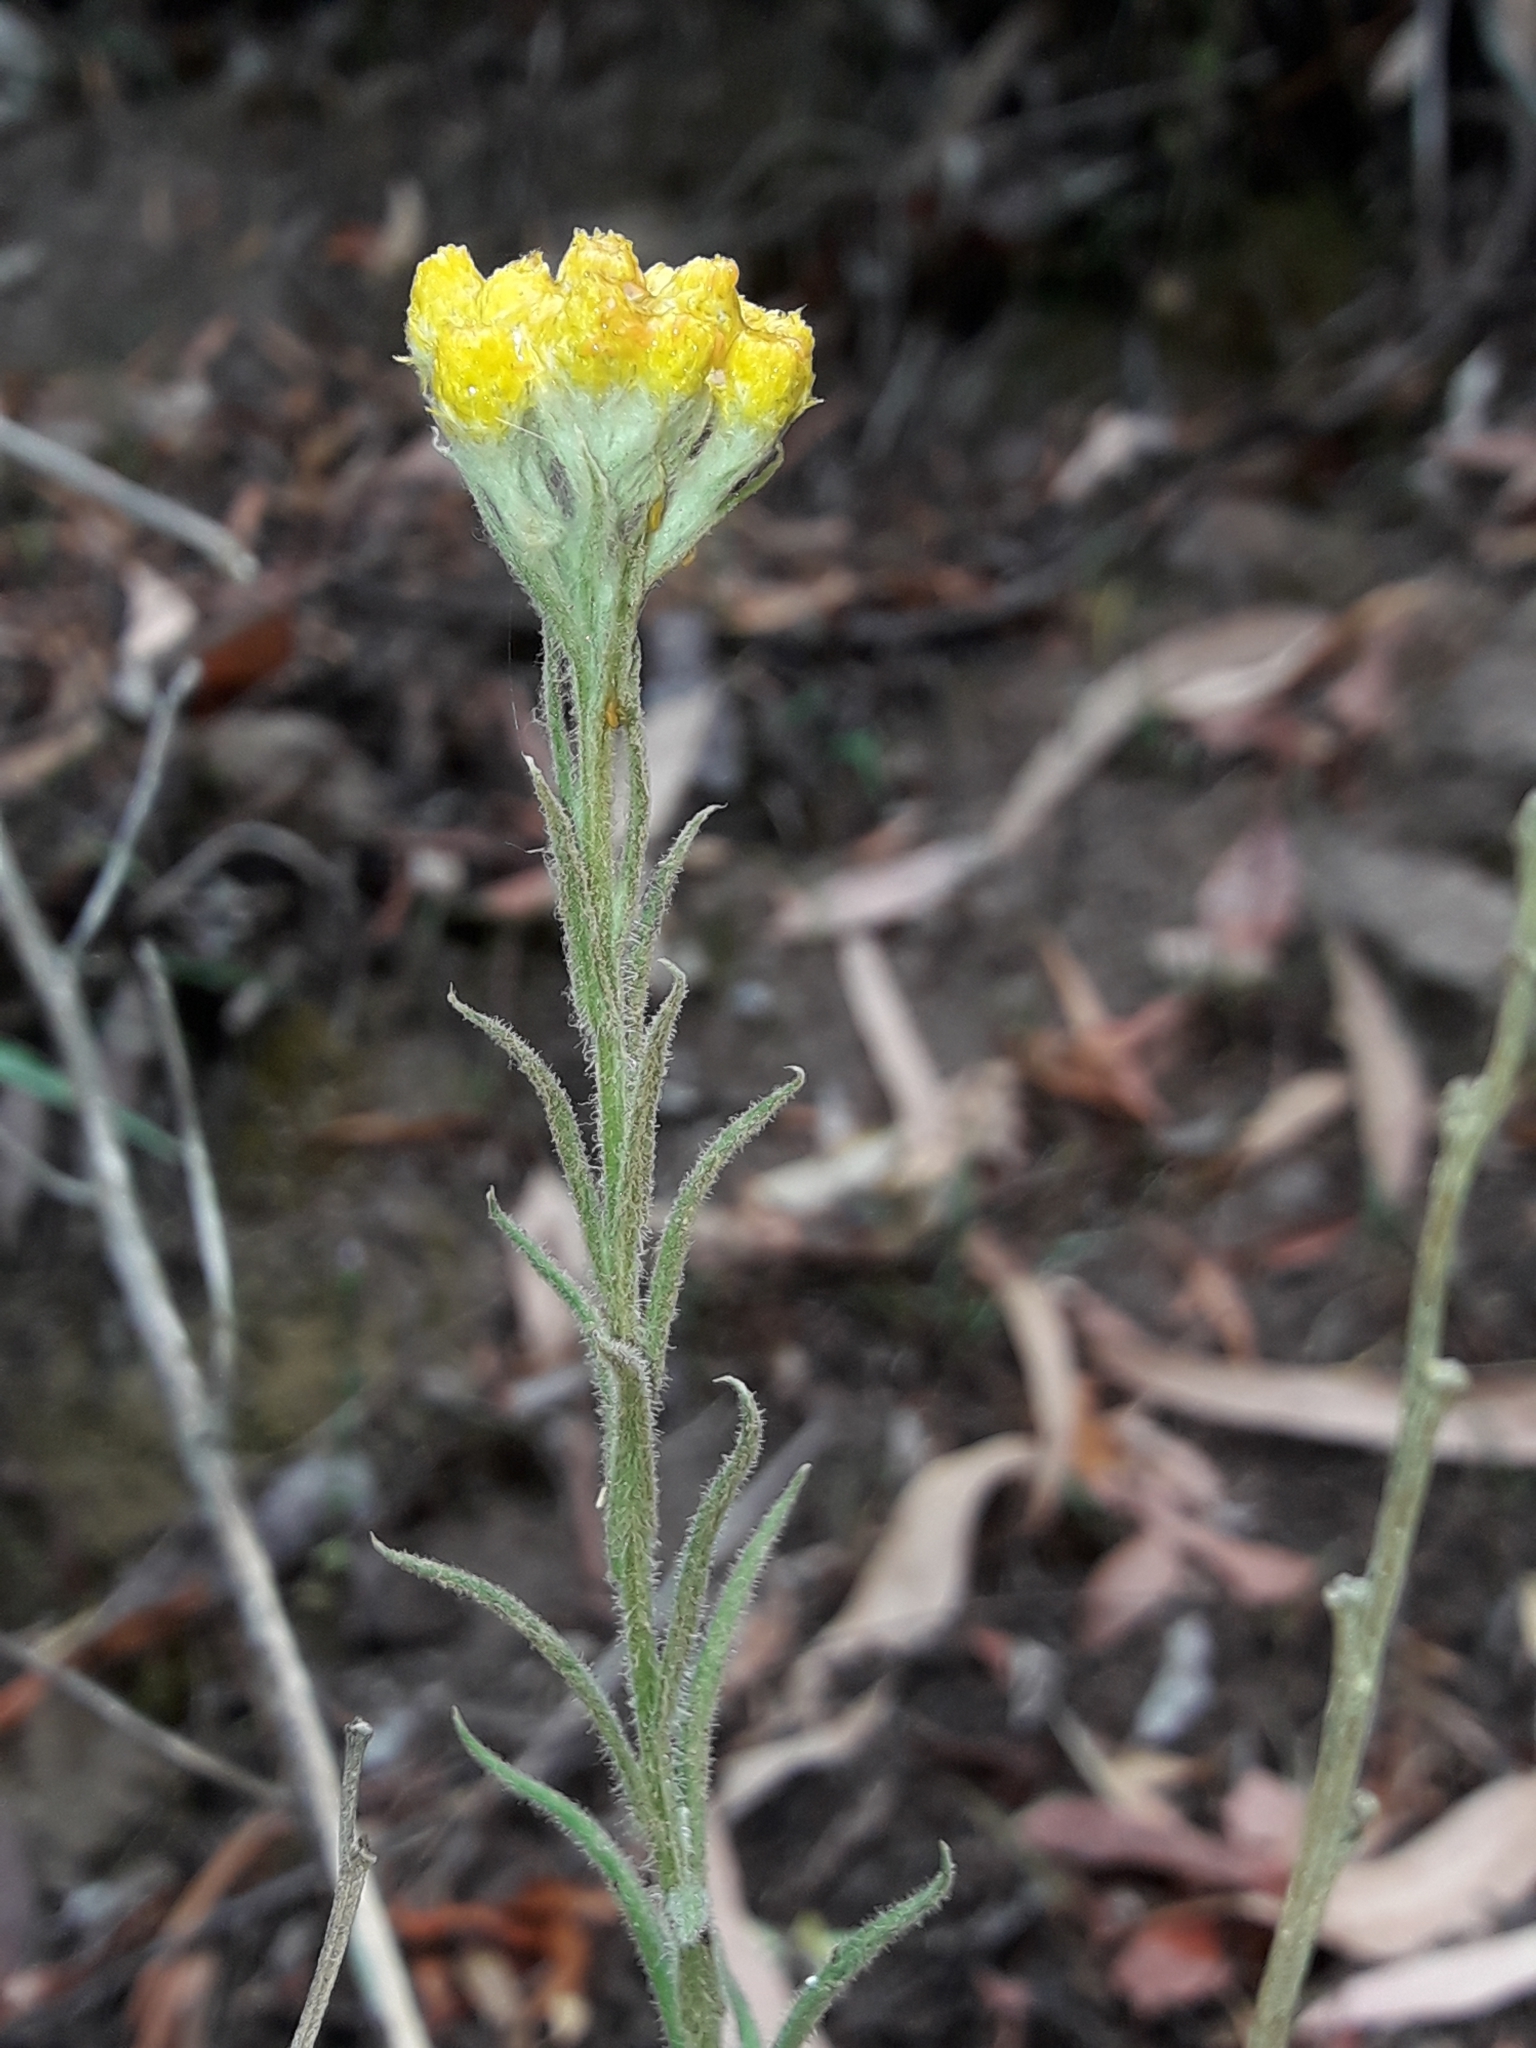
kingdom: Plantae
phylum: Tracheophyta
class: Magnoliopsida
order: Asterales
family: Asteraceae
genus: Chrysocephalum
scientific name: Chrysocephalum semipapposum
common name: Clustered everlasting
